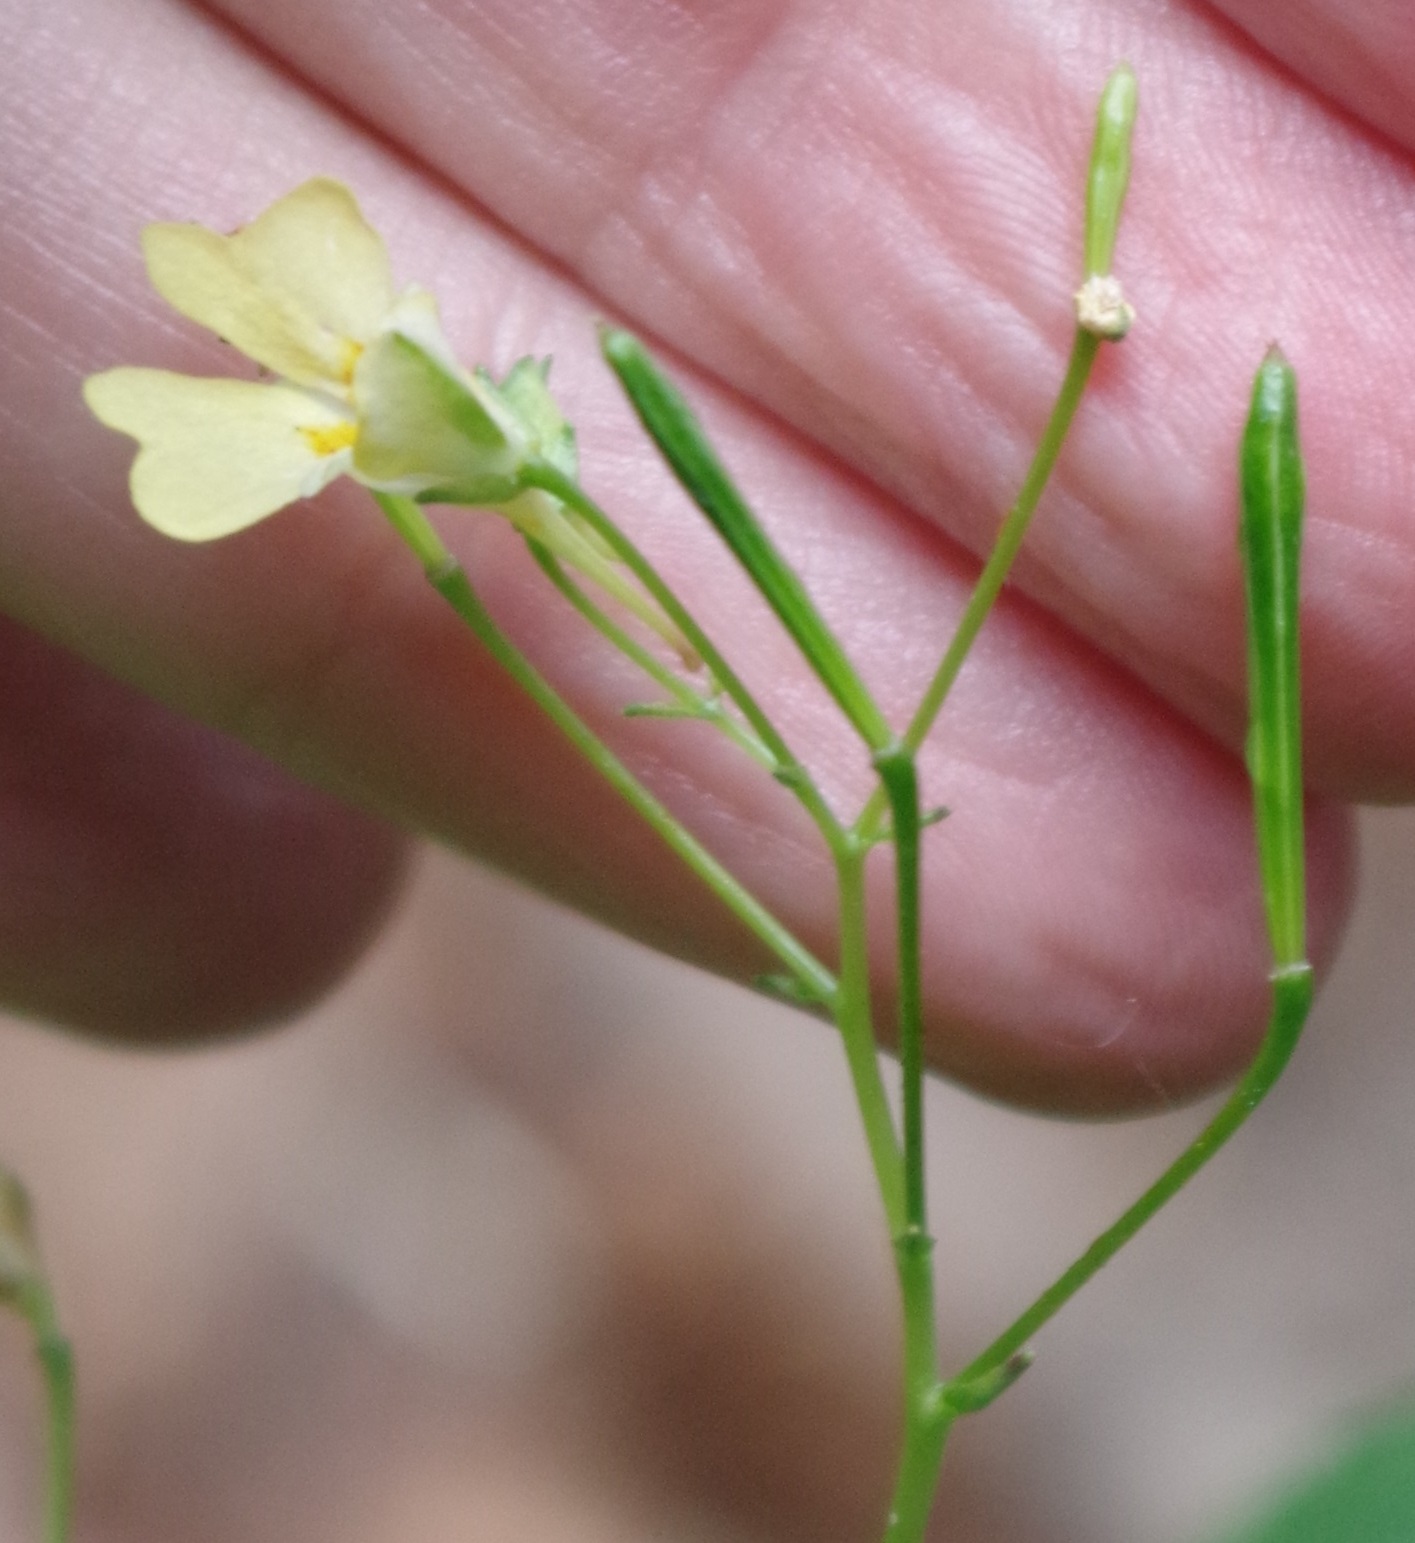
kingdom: Plantae
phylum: Tracheophyta
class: Magnoliopsida
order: Ericales
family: Balsaminaceae
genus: Impatiens
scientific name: Impatiens parviflora
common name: Small balsam
